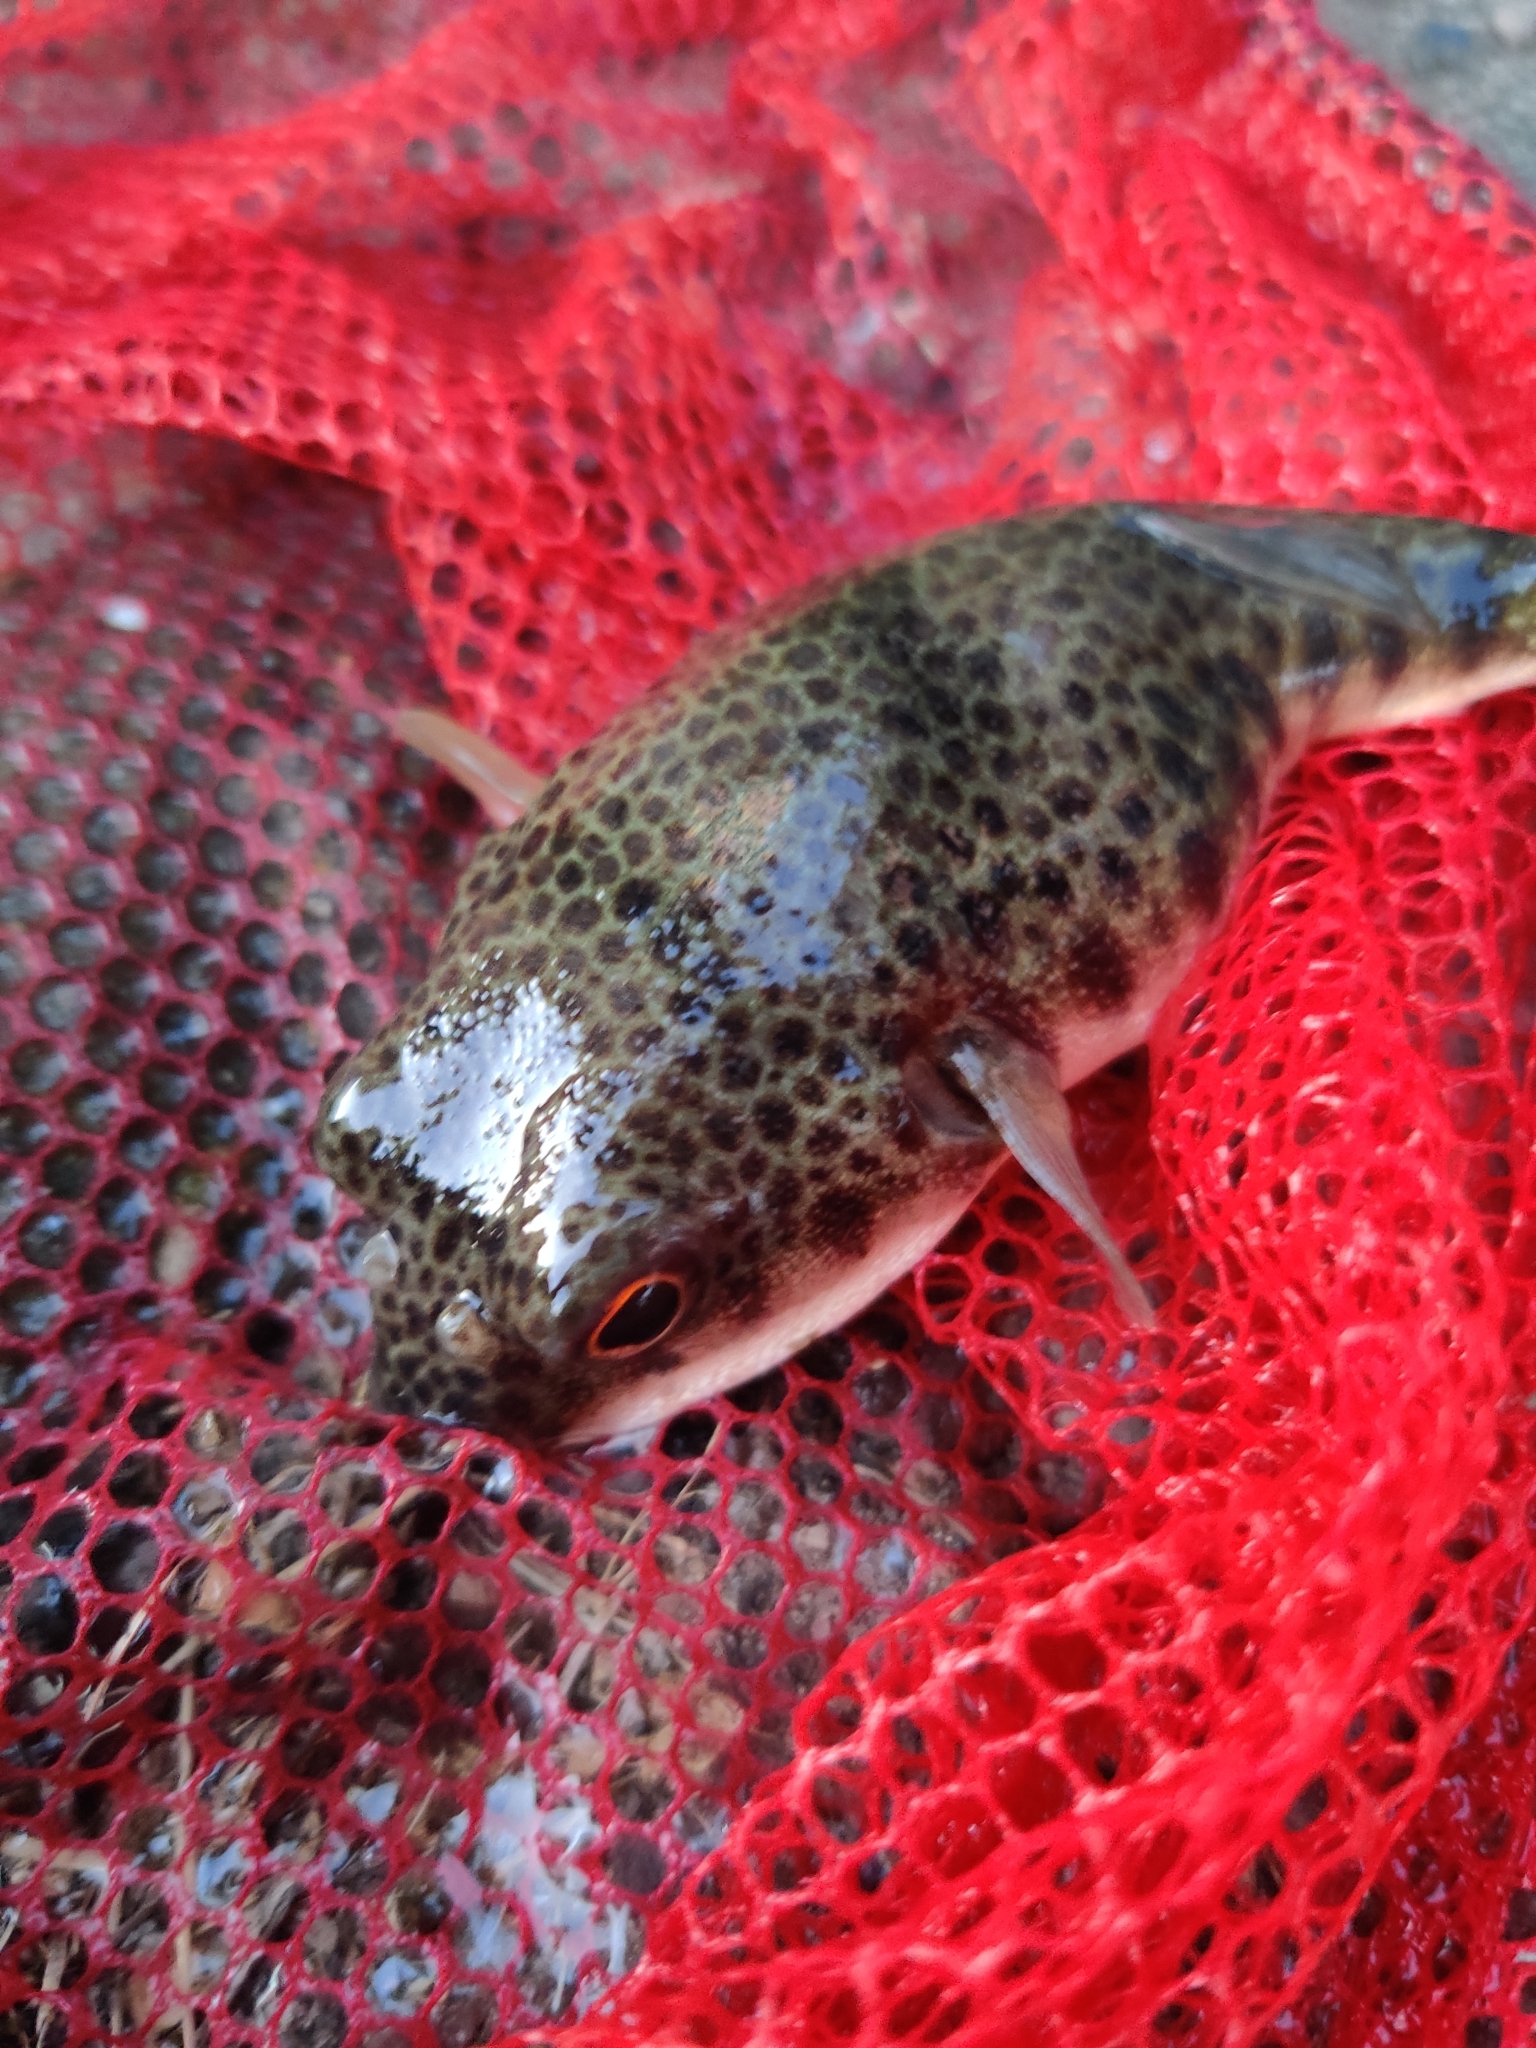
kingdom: Animalia
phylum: Chordata
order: Tetraodontiformes
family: Tetraodontidae
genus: Tetractenos
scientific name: Tetractenos hamiltoni
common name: Common toadfish
